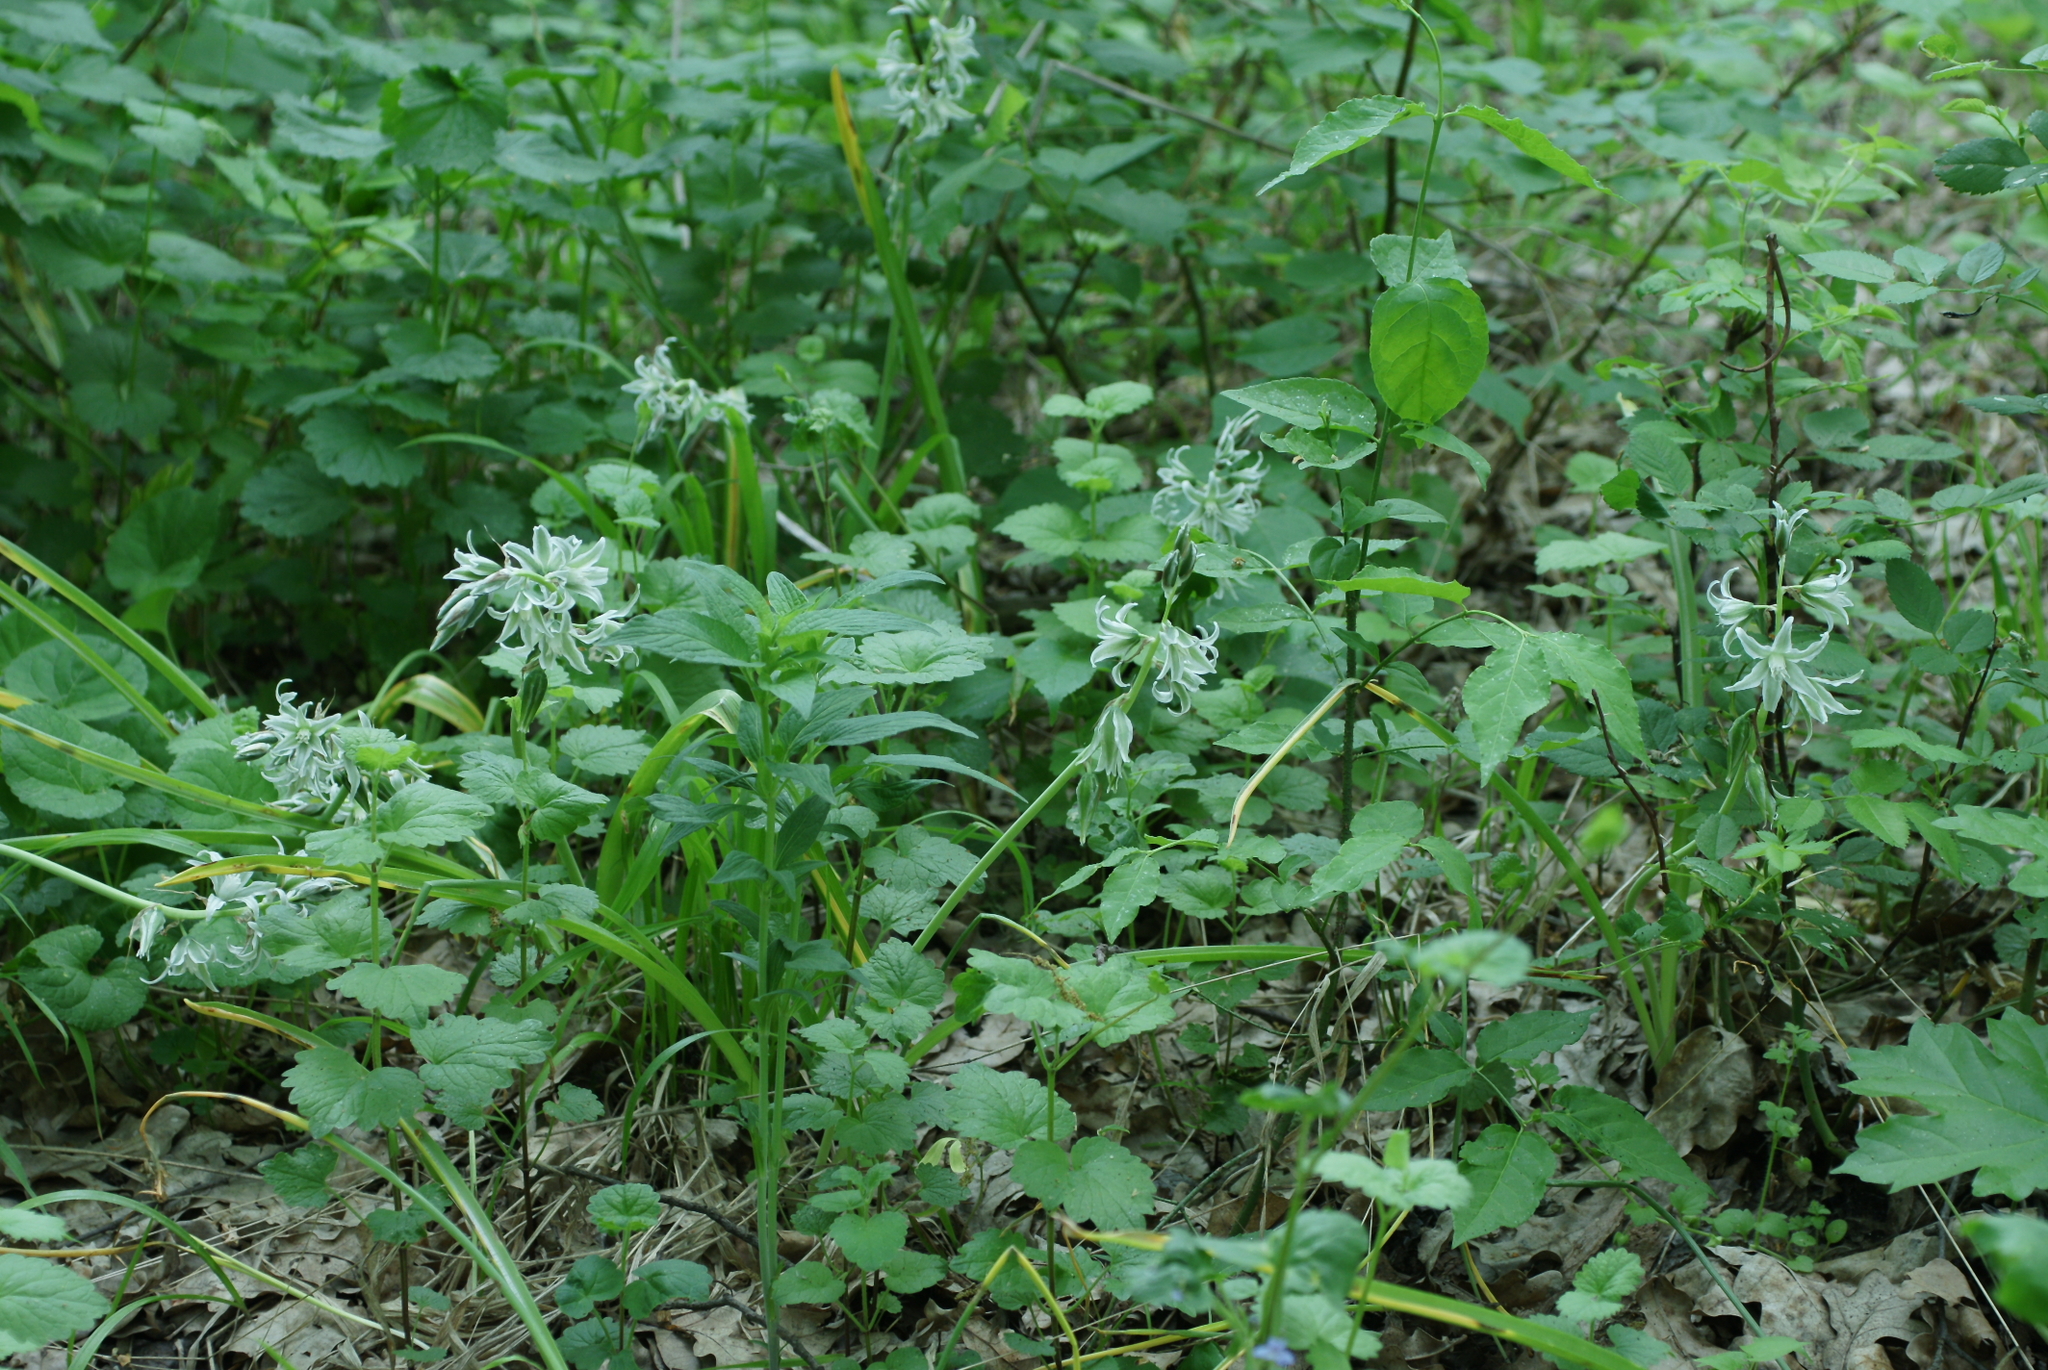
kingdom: Plantae
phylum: Tracheophyta
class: Liliopsida
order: Asparagales
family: Asparagaceae
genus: Ornithogalum
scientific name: Ornithogalum boucheanum
